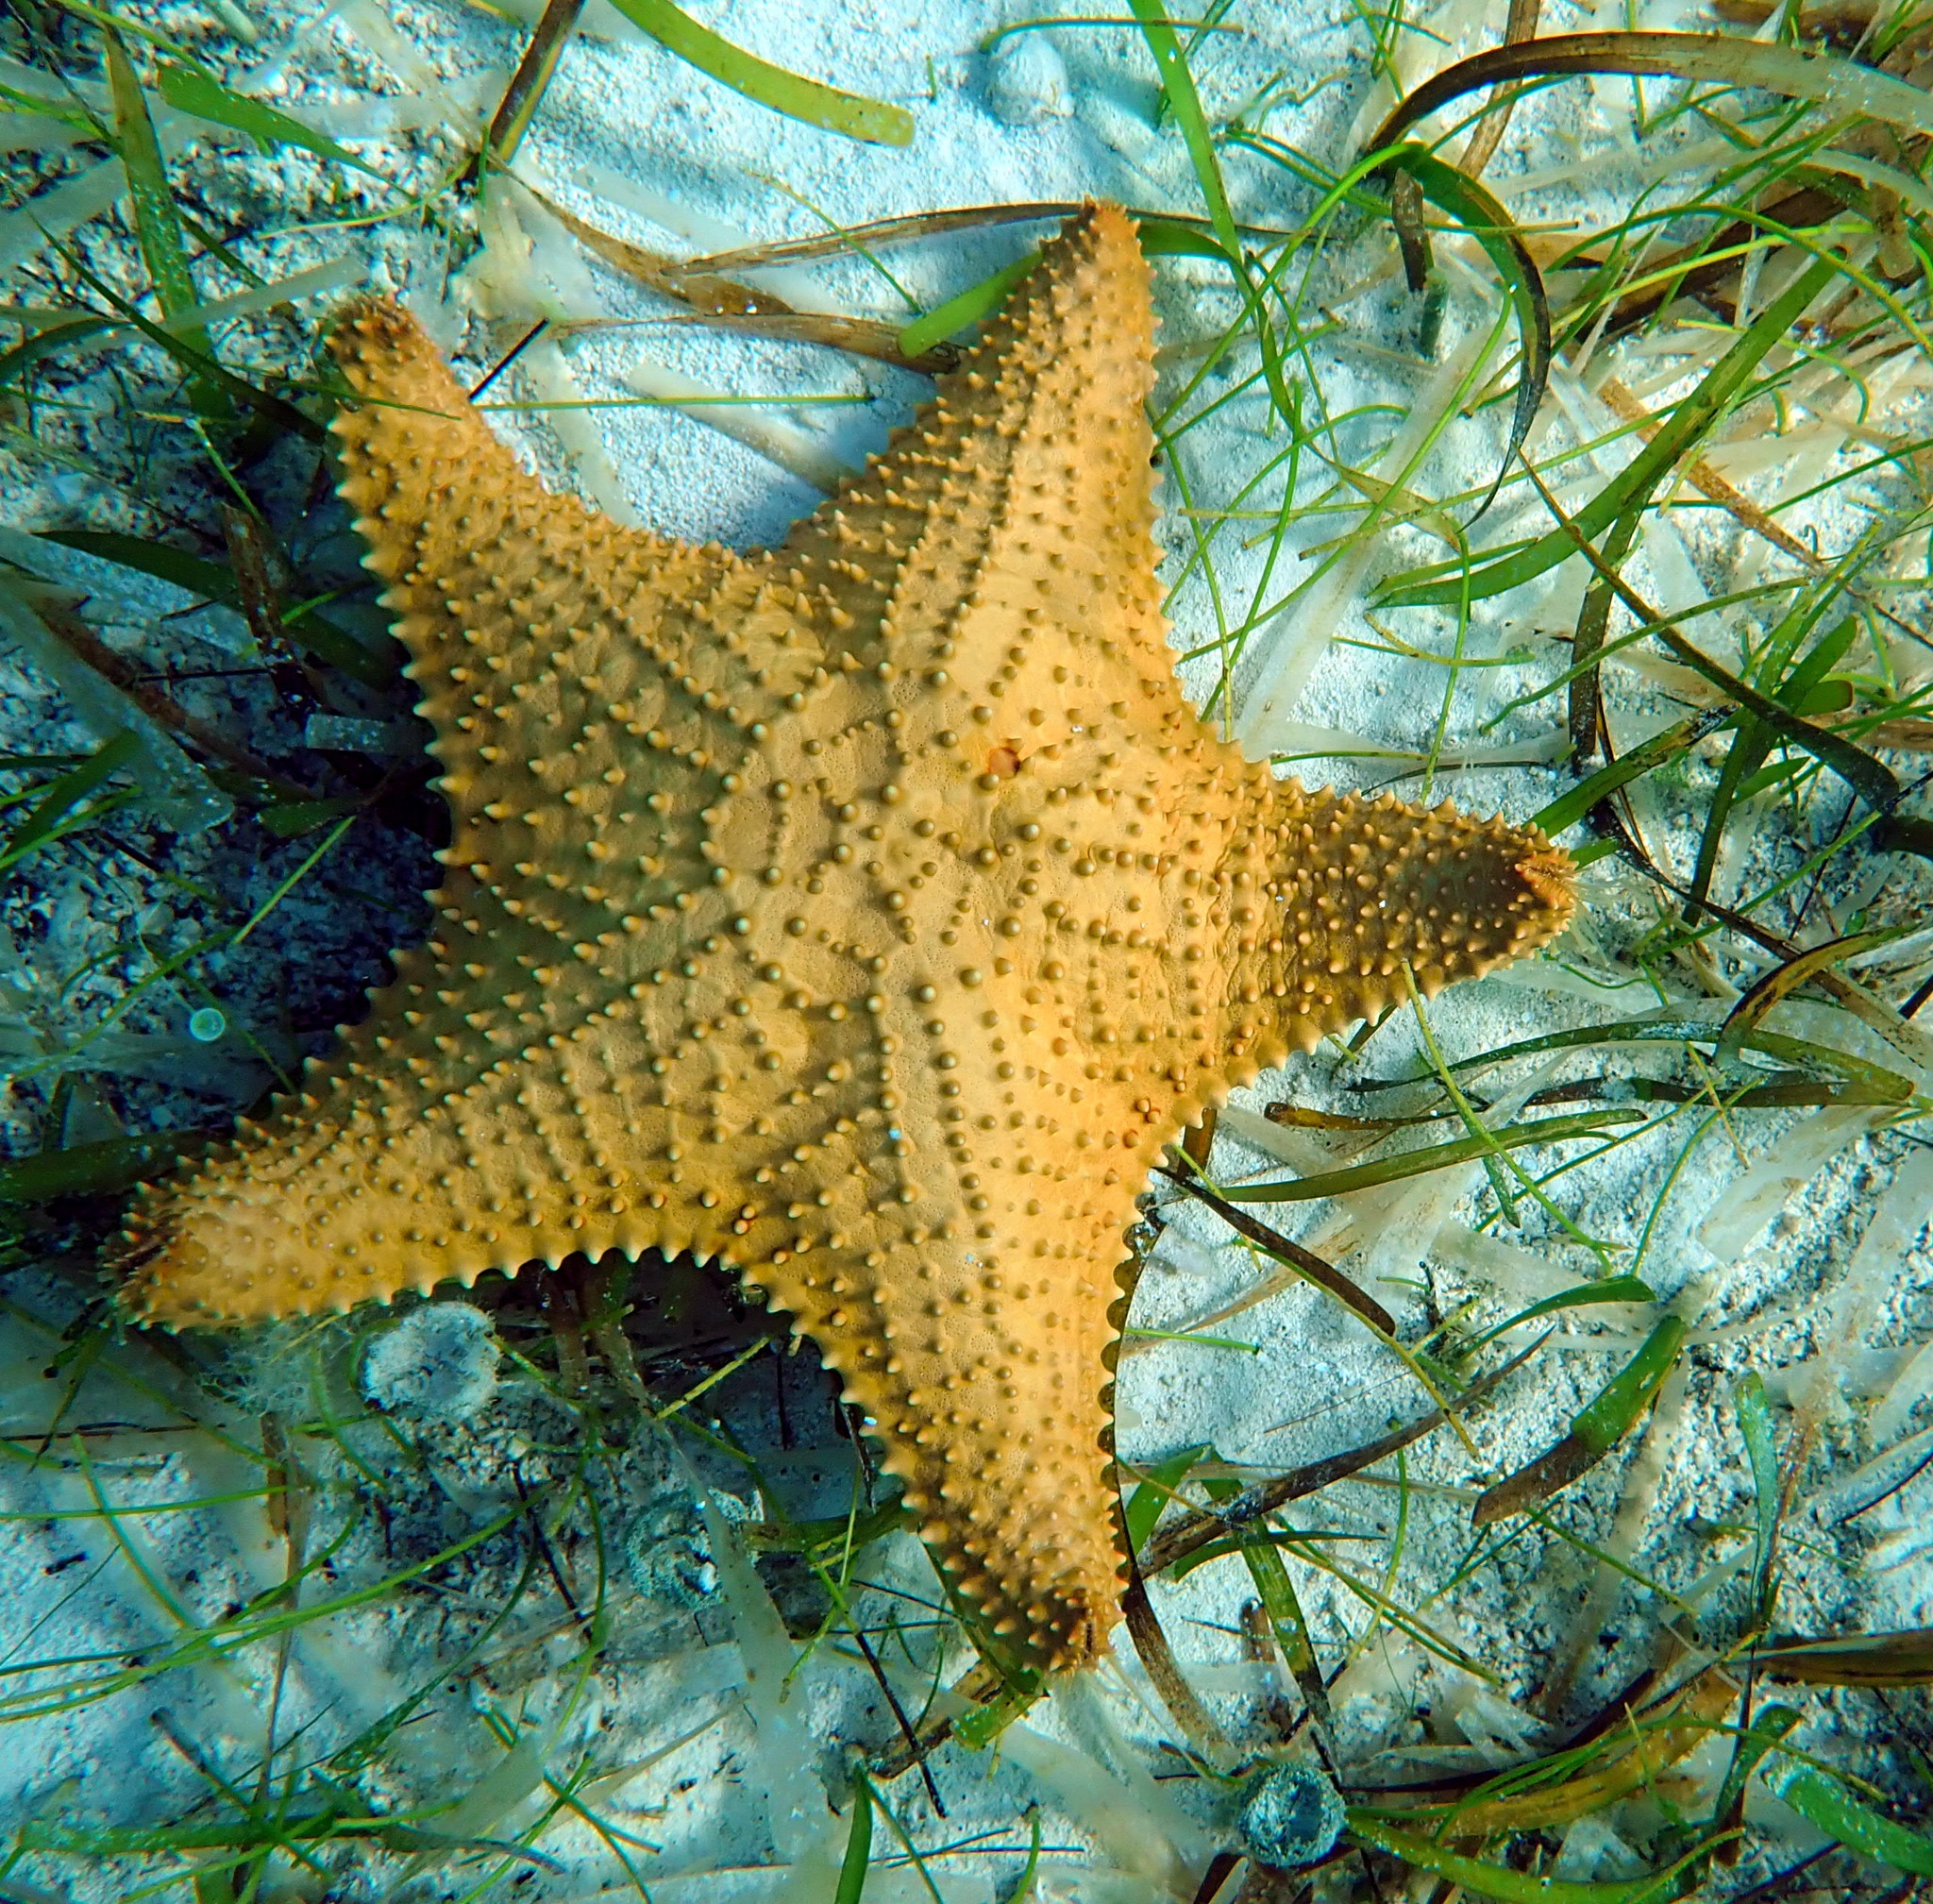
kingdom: Animalia
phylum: Echinodermata
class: Asteroidea
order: Valvatida
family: Oreasteridae
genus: Oreaster
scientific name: Oreaster reticulatus
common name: Cushion sea star
